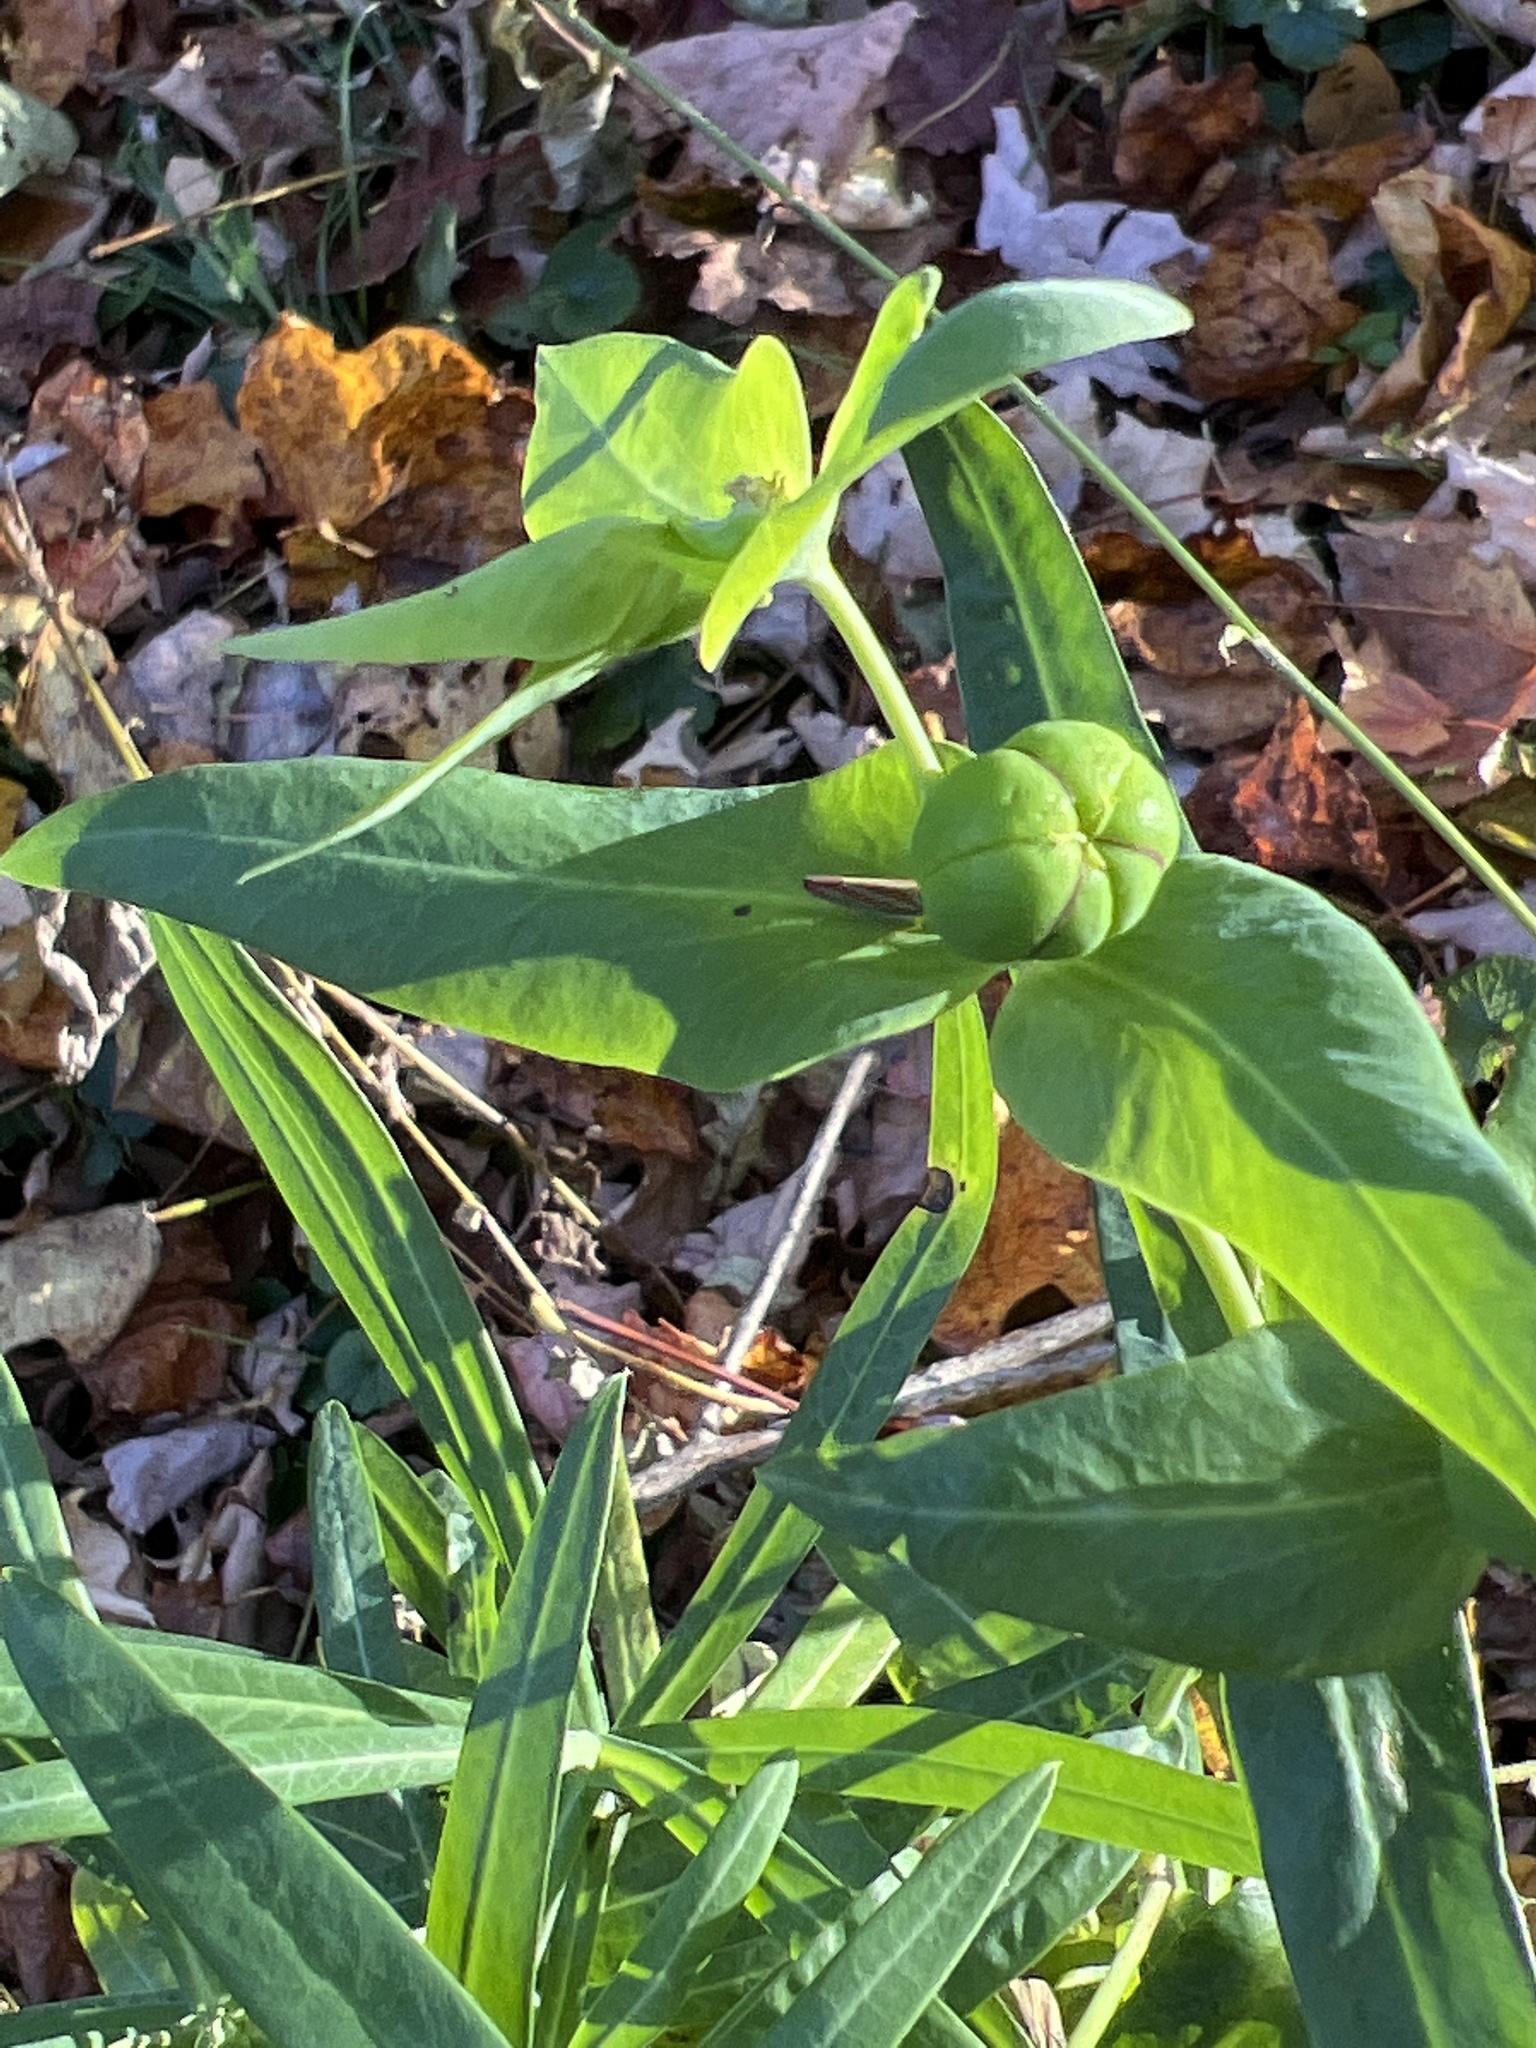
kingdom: Plantae
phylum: Tracheophyta
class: Magnoliopsida
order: Malpighiales
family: Euphorbiaceae
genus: Euphorbia
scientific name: Euphorbia lathyris
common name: Caper spurge
